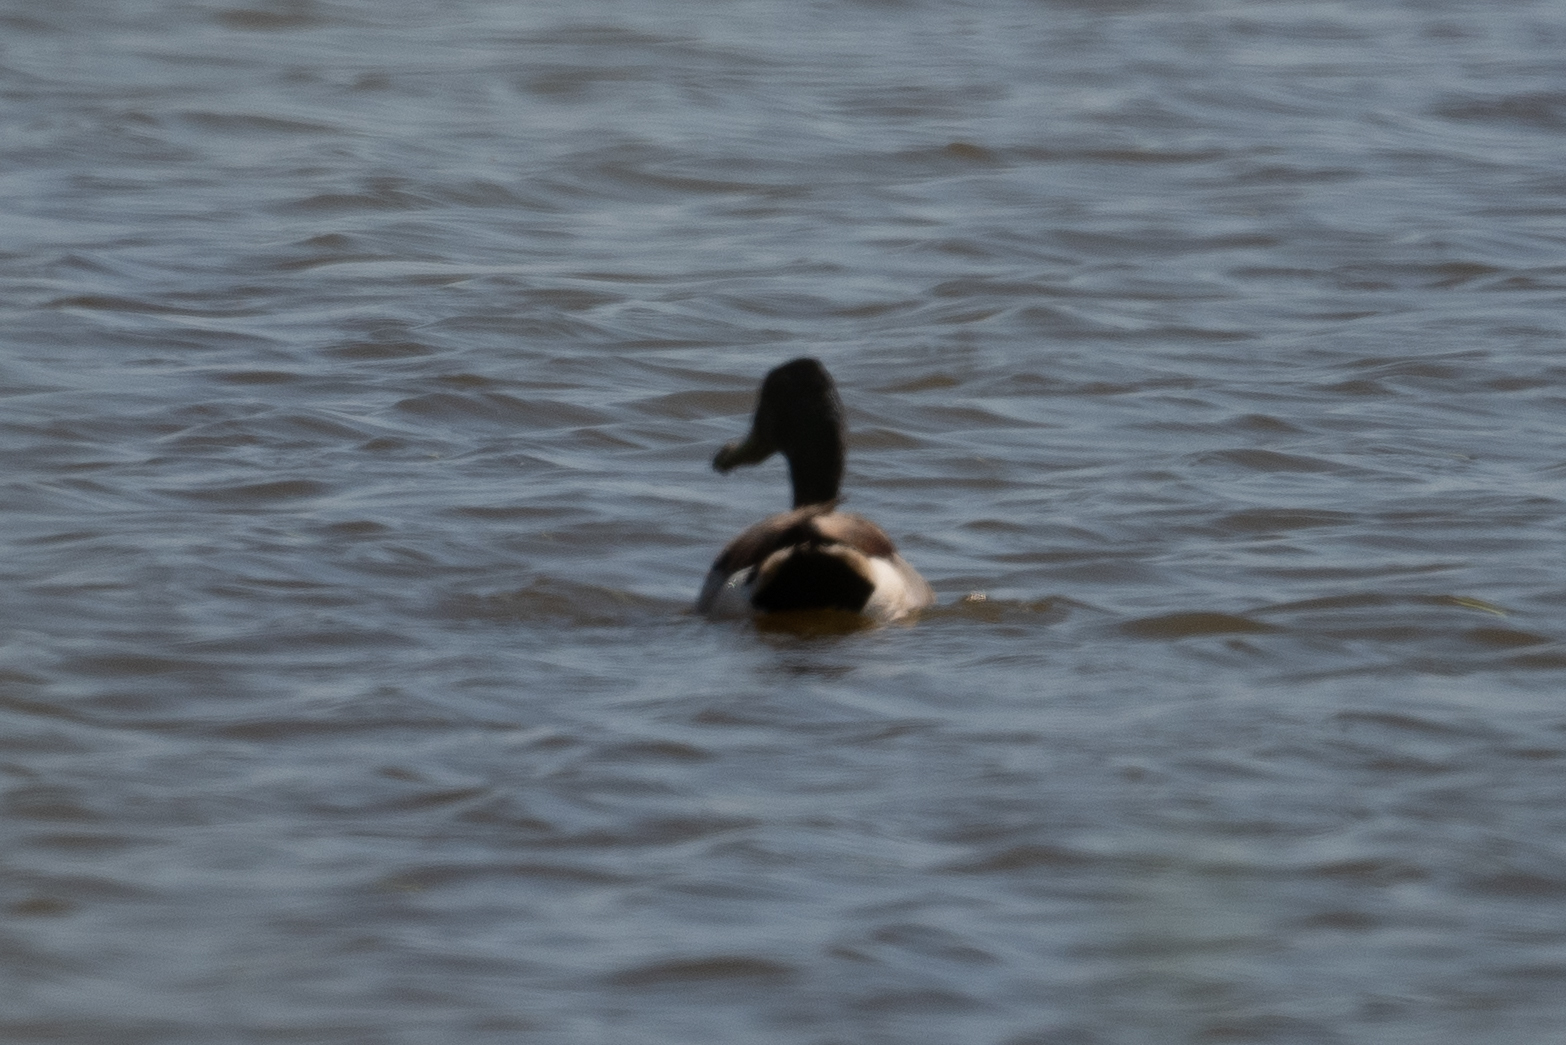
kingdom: Animalia
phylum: Chordata
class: Aves
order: Anseriformes
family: Anatidae
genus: Anas
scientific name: Anas platyrhynchos
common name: Mallard
